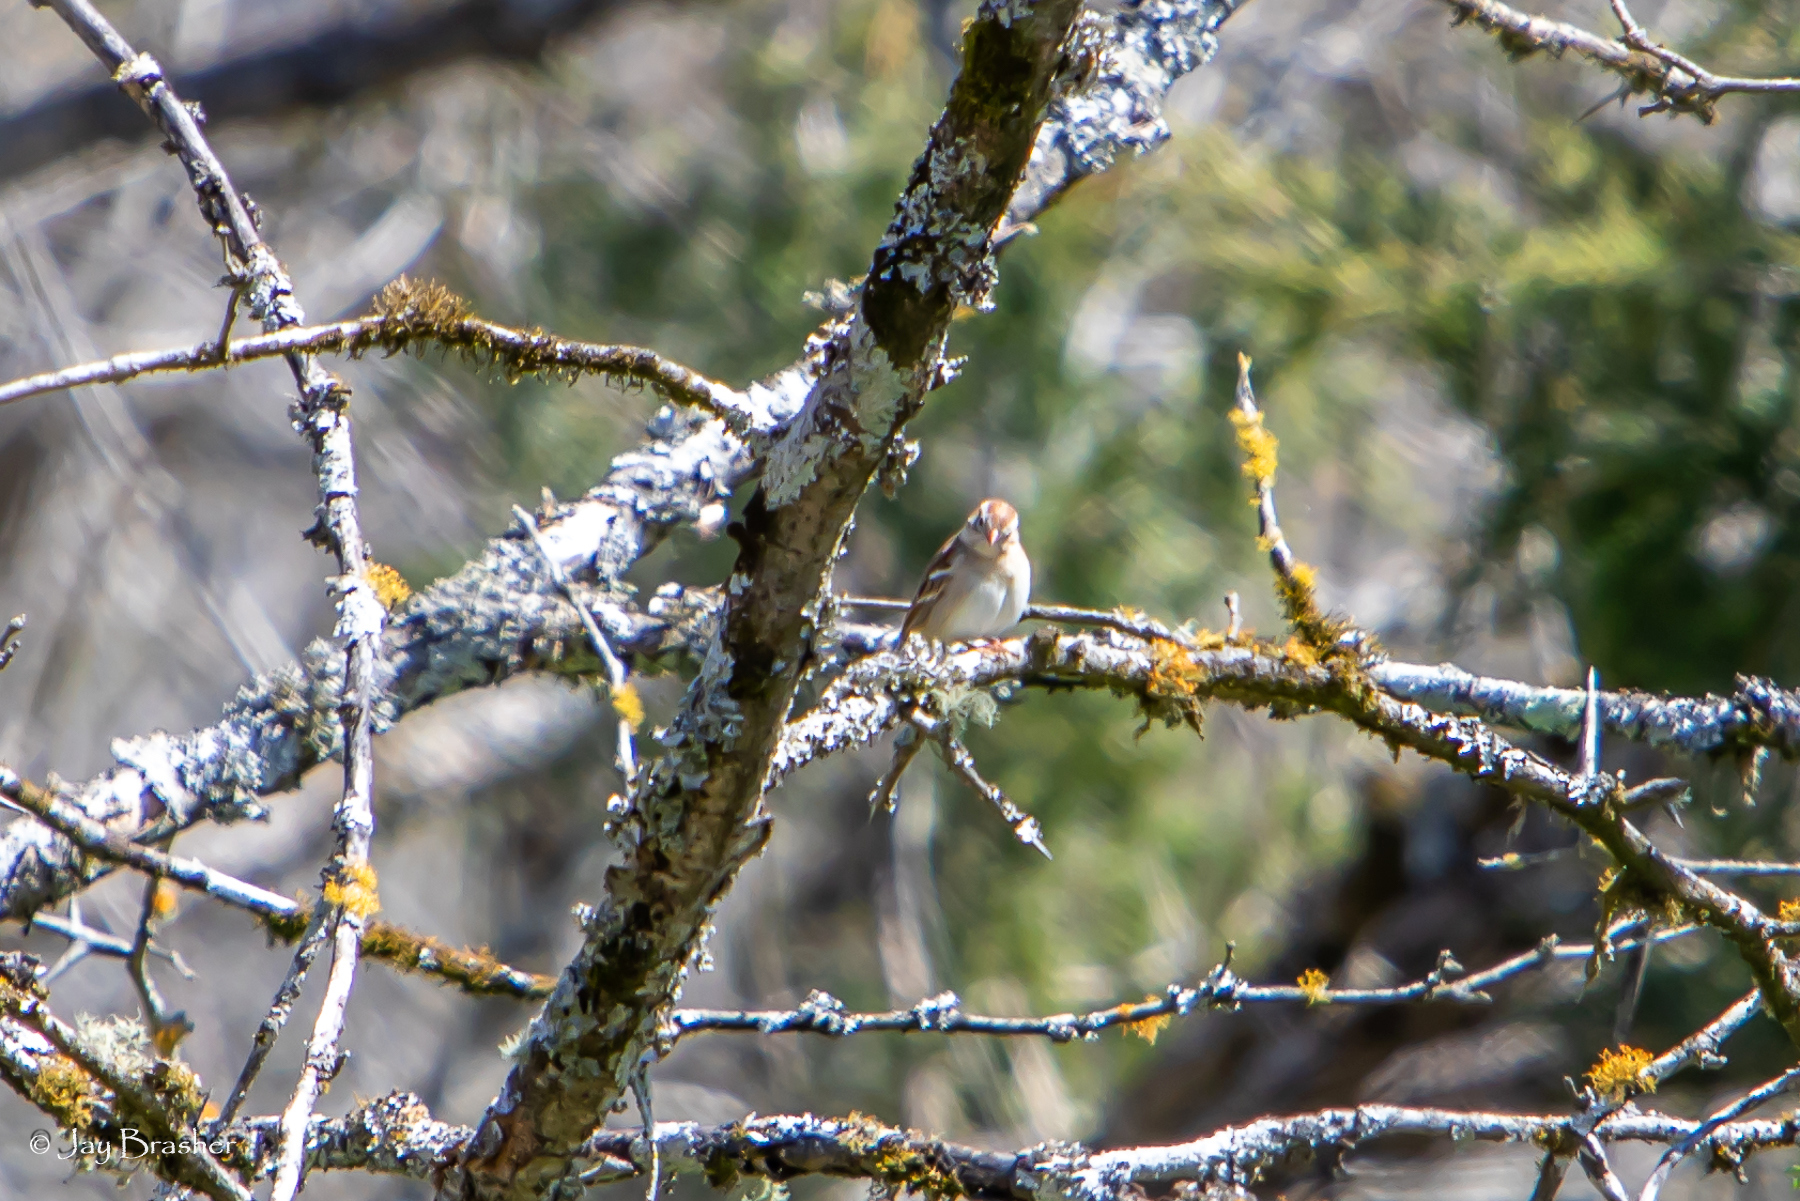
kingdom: Animalia
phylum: Chordata
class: Aves
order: Passeriformes
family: Passerellidae
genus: Spizella
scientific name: Spizella pusilla
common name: Field sparrow
